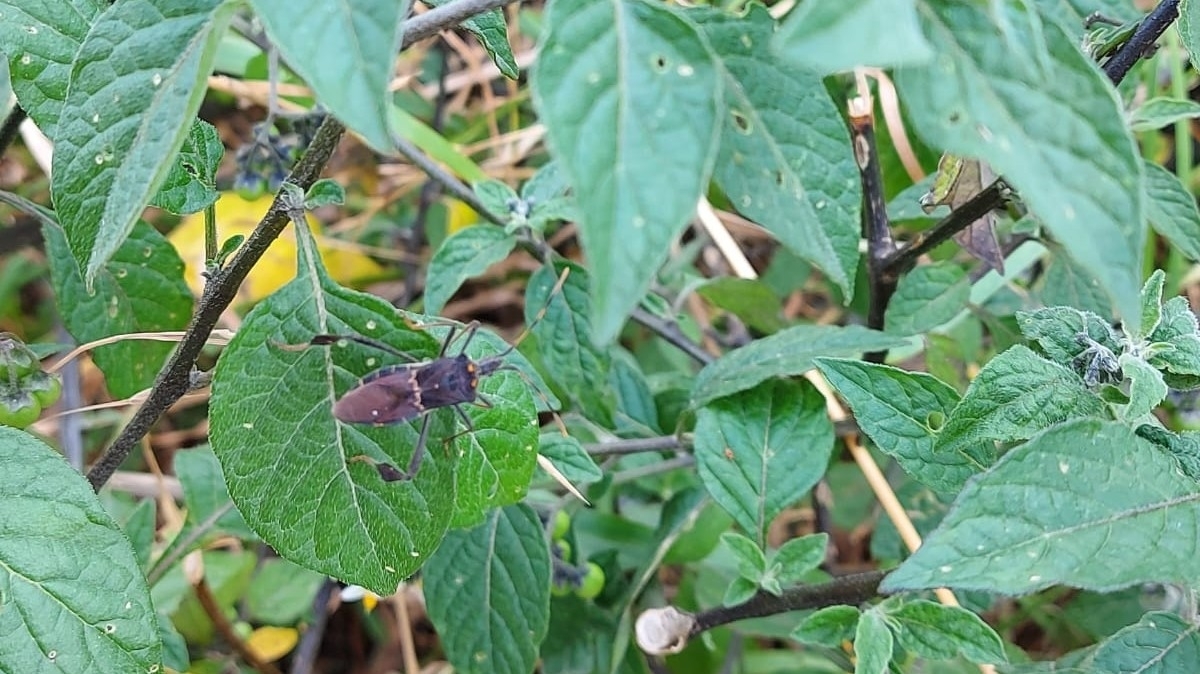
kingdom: Animalia
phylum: Arthropoda
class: Insecta
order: Hemiptera
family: Coreidae
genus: Leptoglossus
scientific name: Leptoglossus zonatus
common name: Large-legged bug
